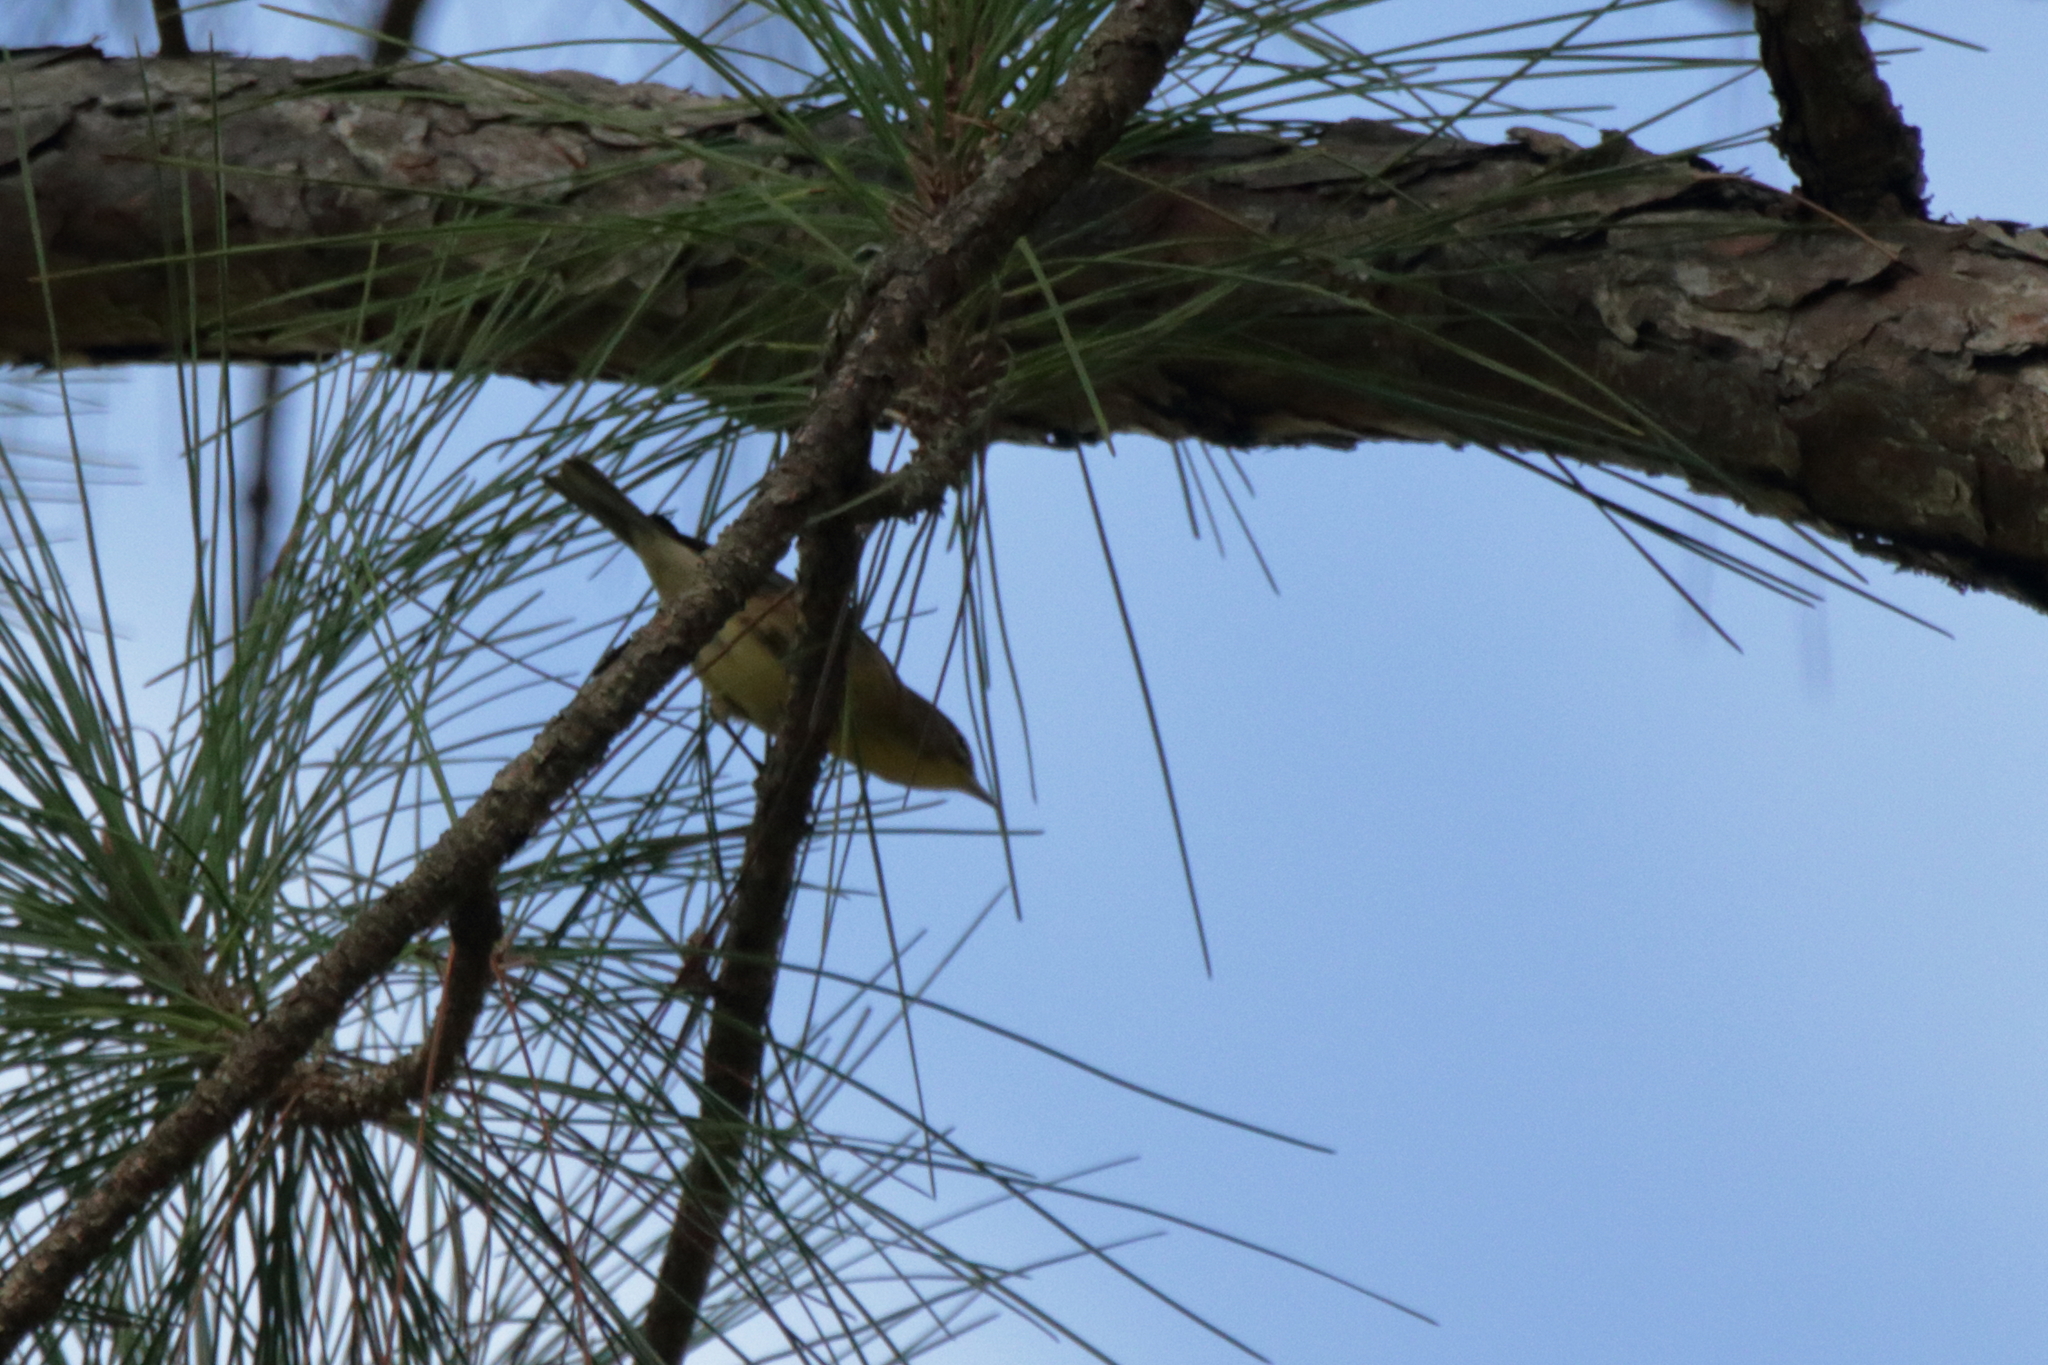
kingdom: Animalia
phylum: Chordata
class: Aves
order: Passeriformes
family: Parulidae
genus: Setophaga
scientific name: Setophaga pinus
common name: Pine warbler
